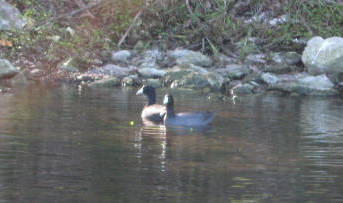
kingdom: Animalia
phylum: Chordata
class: Aves
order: Gruiformes
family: Rallidae
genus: Fulica
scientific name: Fulica americana
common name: American coot
